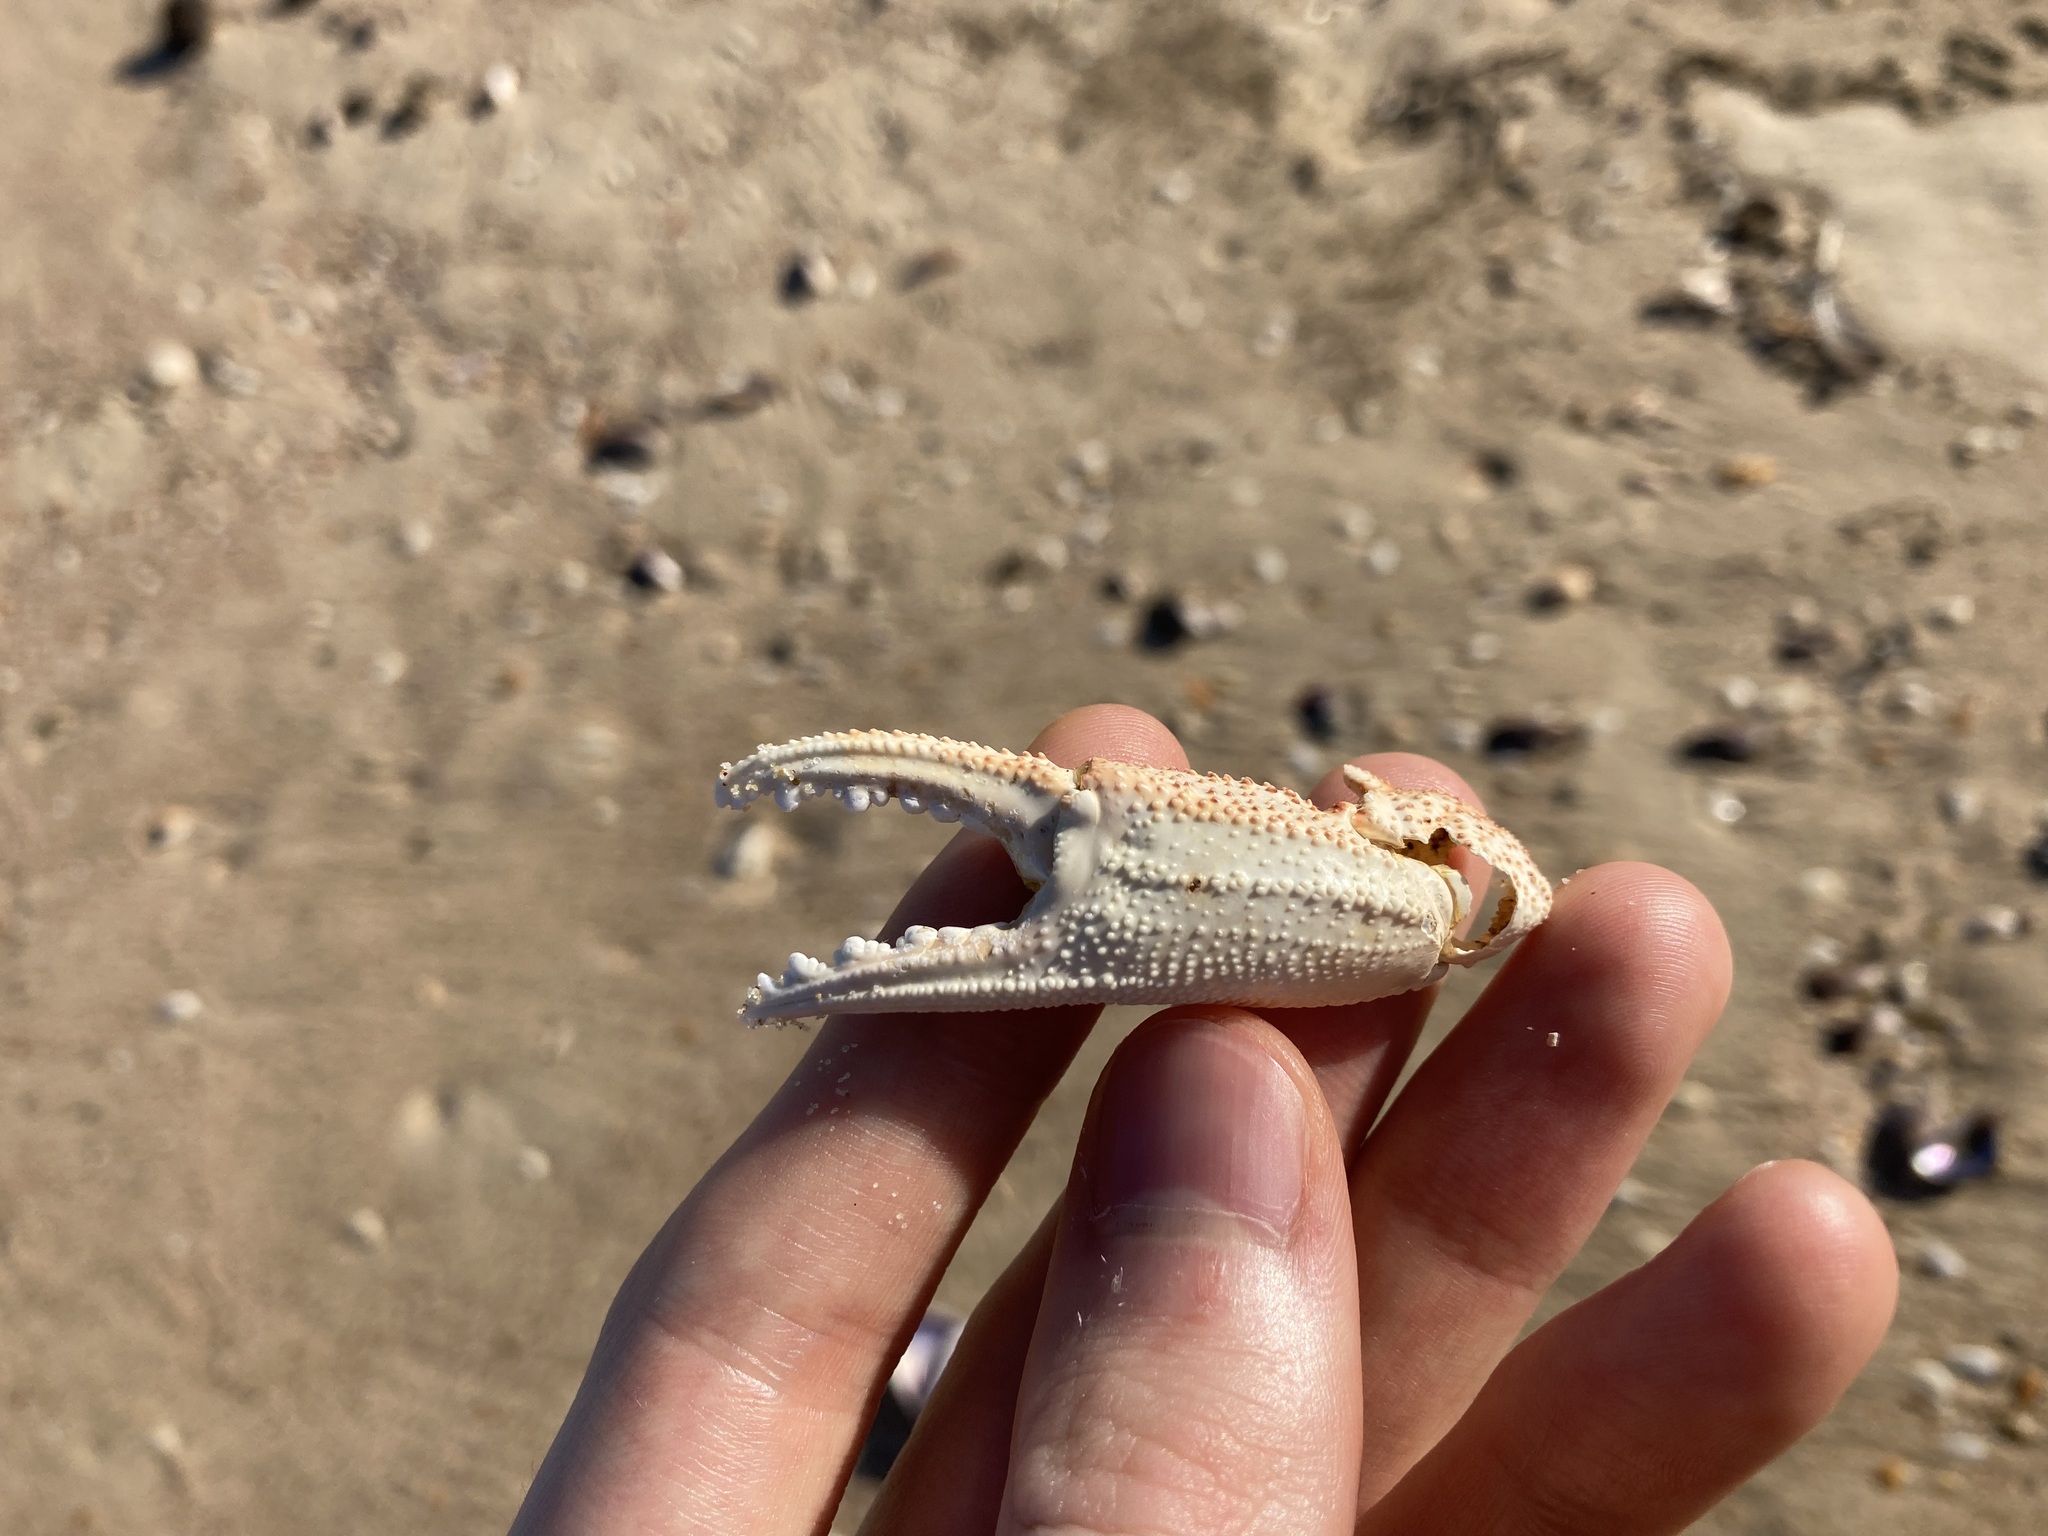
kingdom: Animalia
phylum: Arthropoda
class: Malacostraca
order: Decapoda
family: Ovalipidae
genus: Ovalipes
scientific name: Ovalipes australiensis
